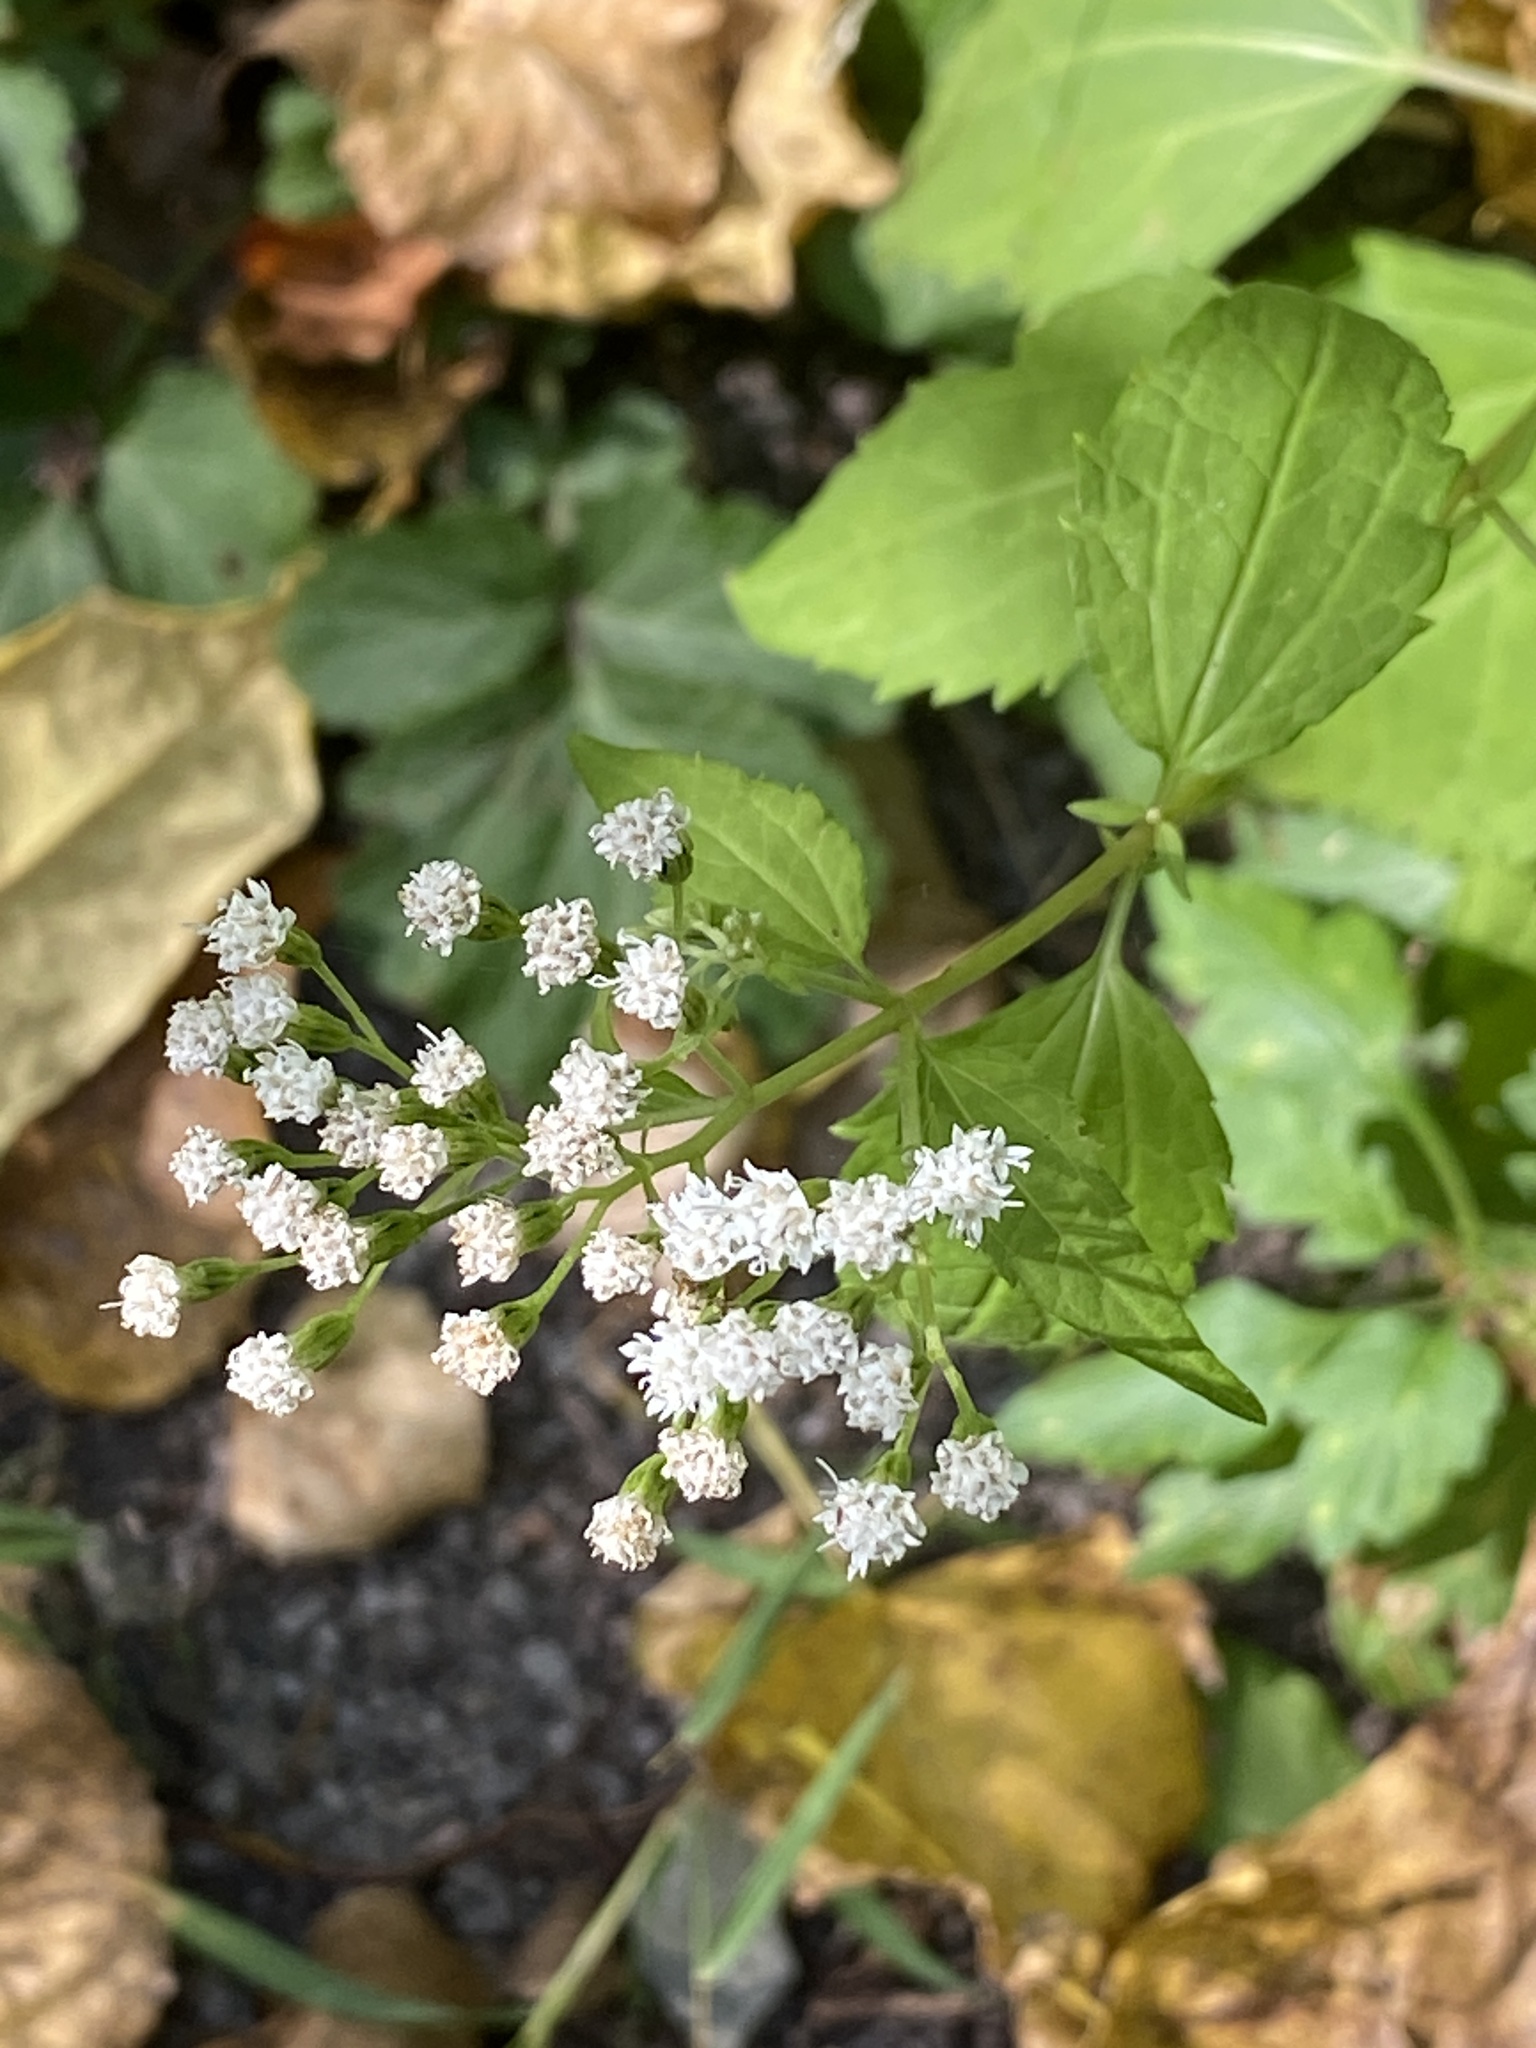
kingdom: Plantae
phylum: Tracheophyta
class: Magnoliopsida
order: Asterales
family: Asteraceae
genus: Ageratina
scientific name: Ageratina altissima
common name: White snakeroot
